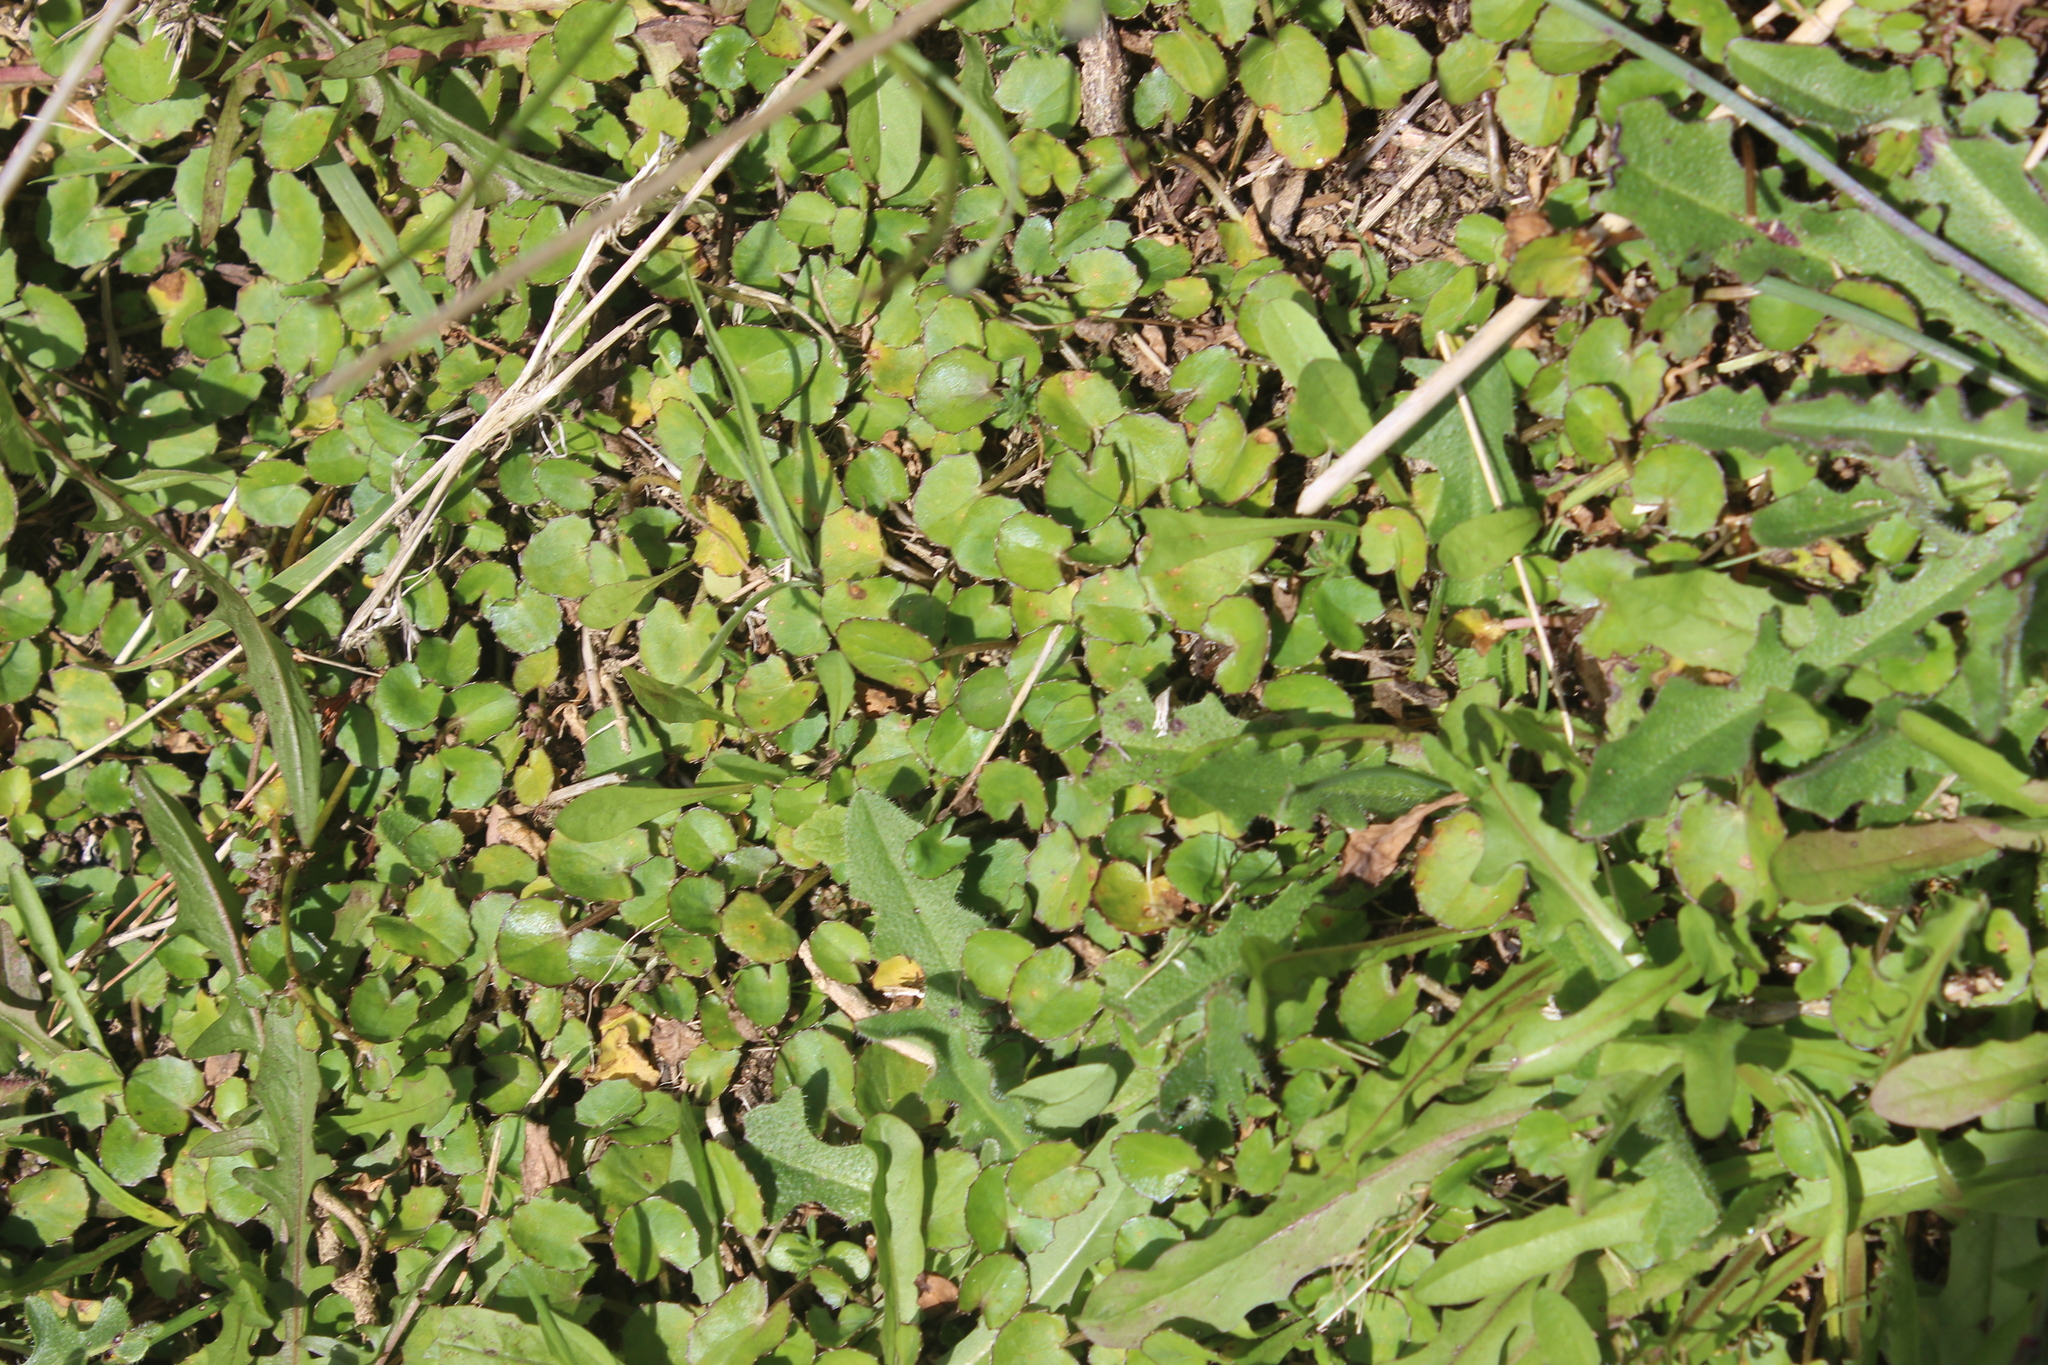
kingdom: Plantae
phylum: Tracheophyta
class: Magnoliopsida
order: Apiales
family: Apiaceae
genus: Centella
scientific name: Centella uniflora
